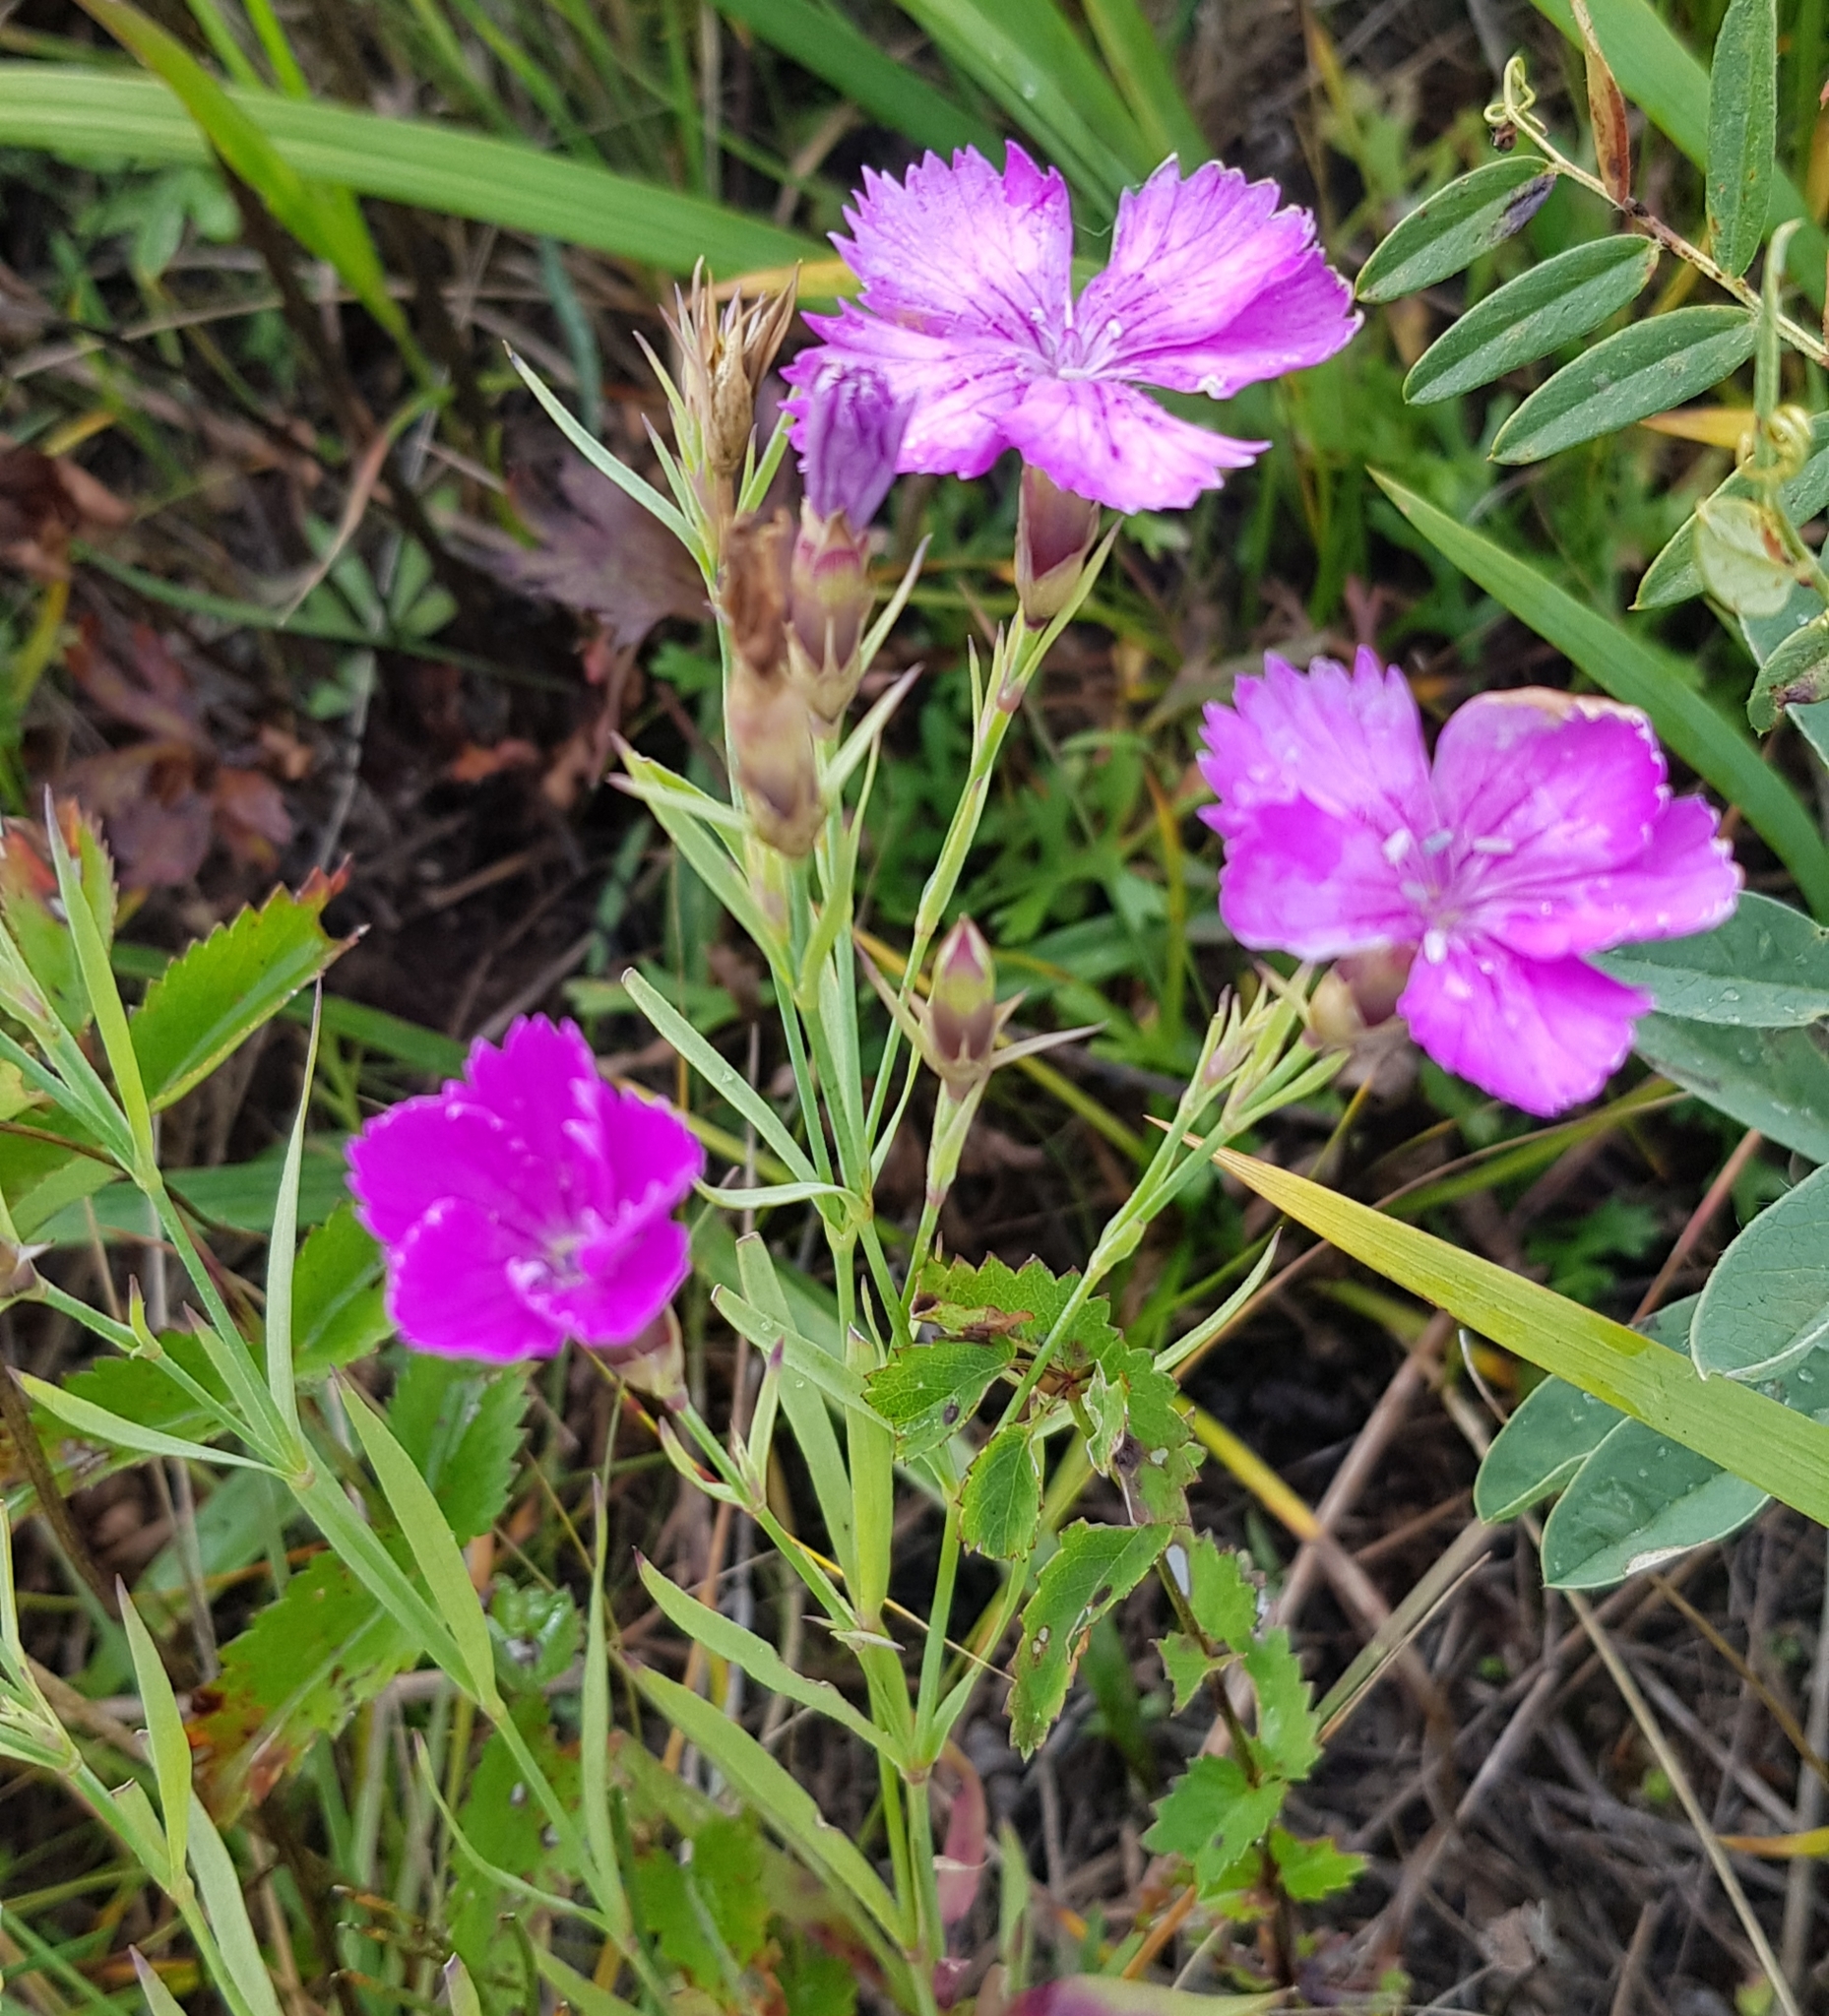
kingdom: Plantae
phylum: Tracheophyta
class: Magnoliopsida
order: Caryophyllales
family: Caryophyllaceae
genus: Dianthus
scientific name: Dianthus chinensis
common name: Rainbow pink
